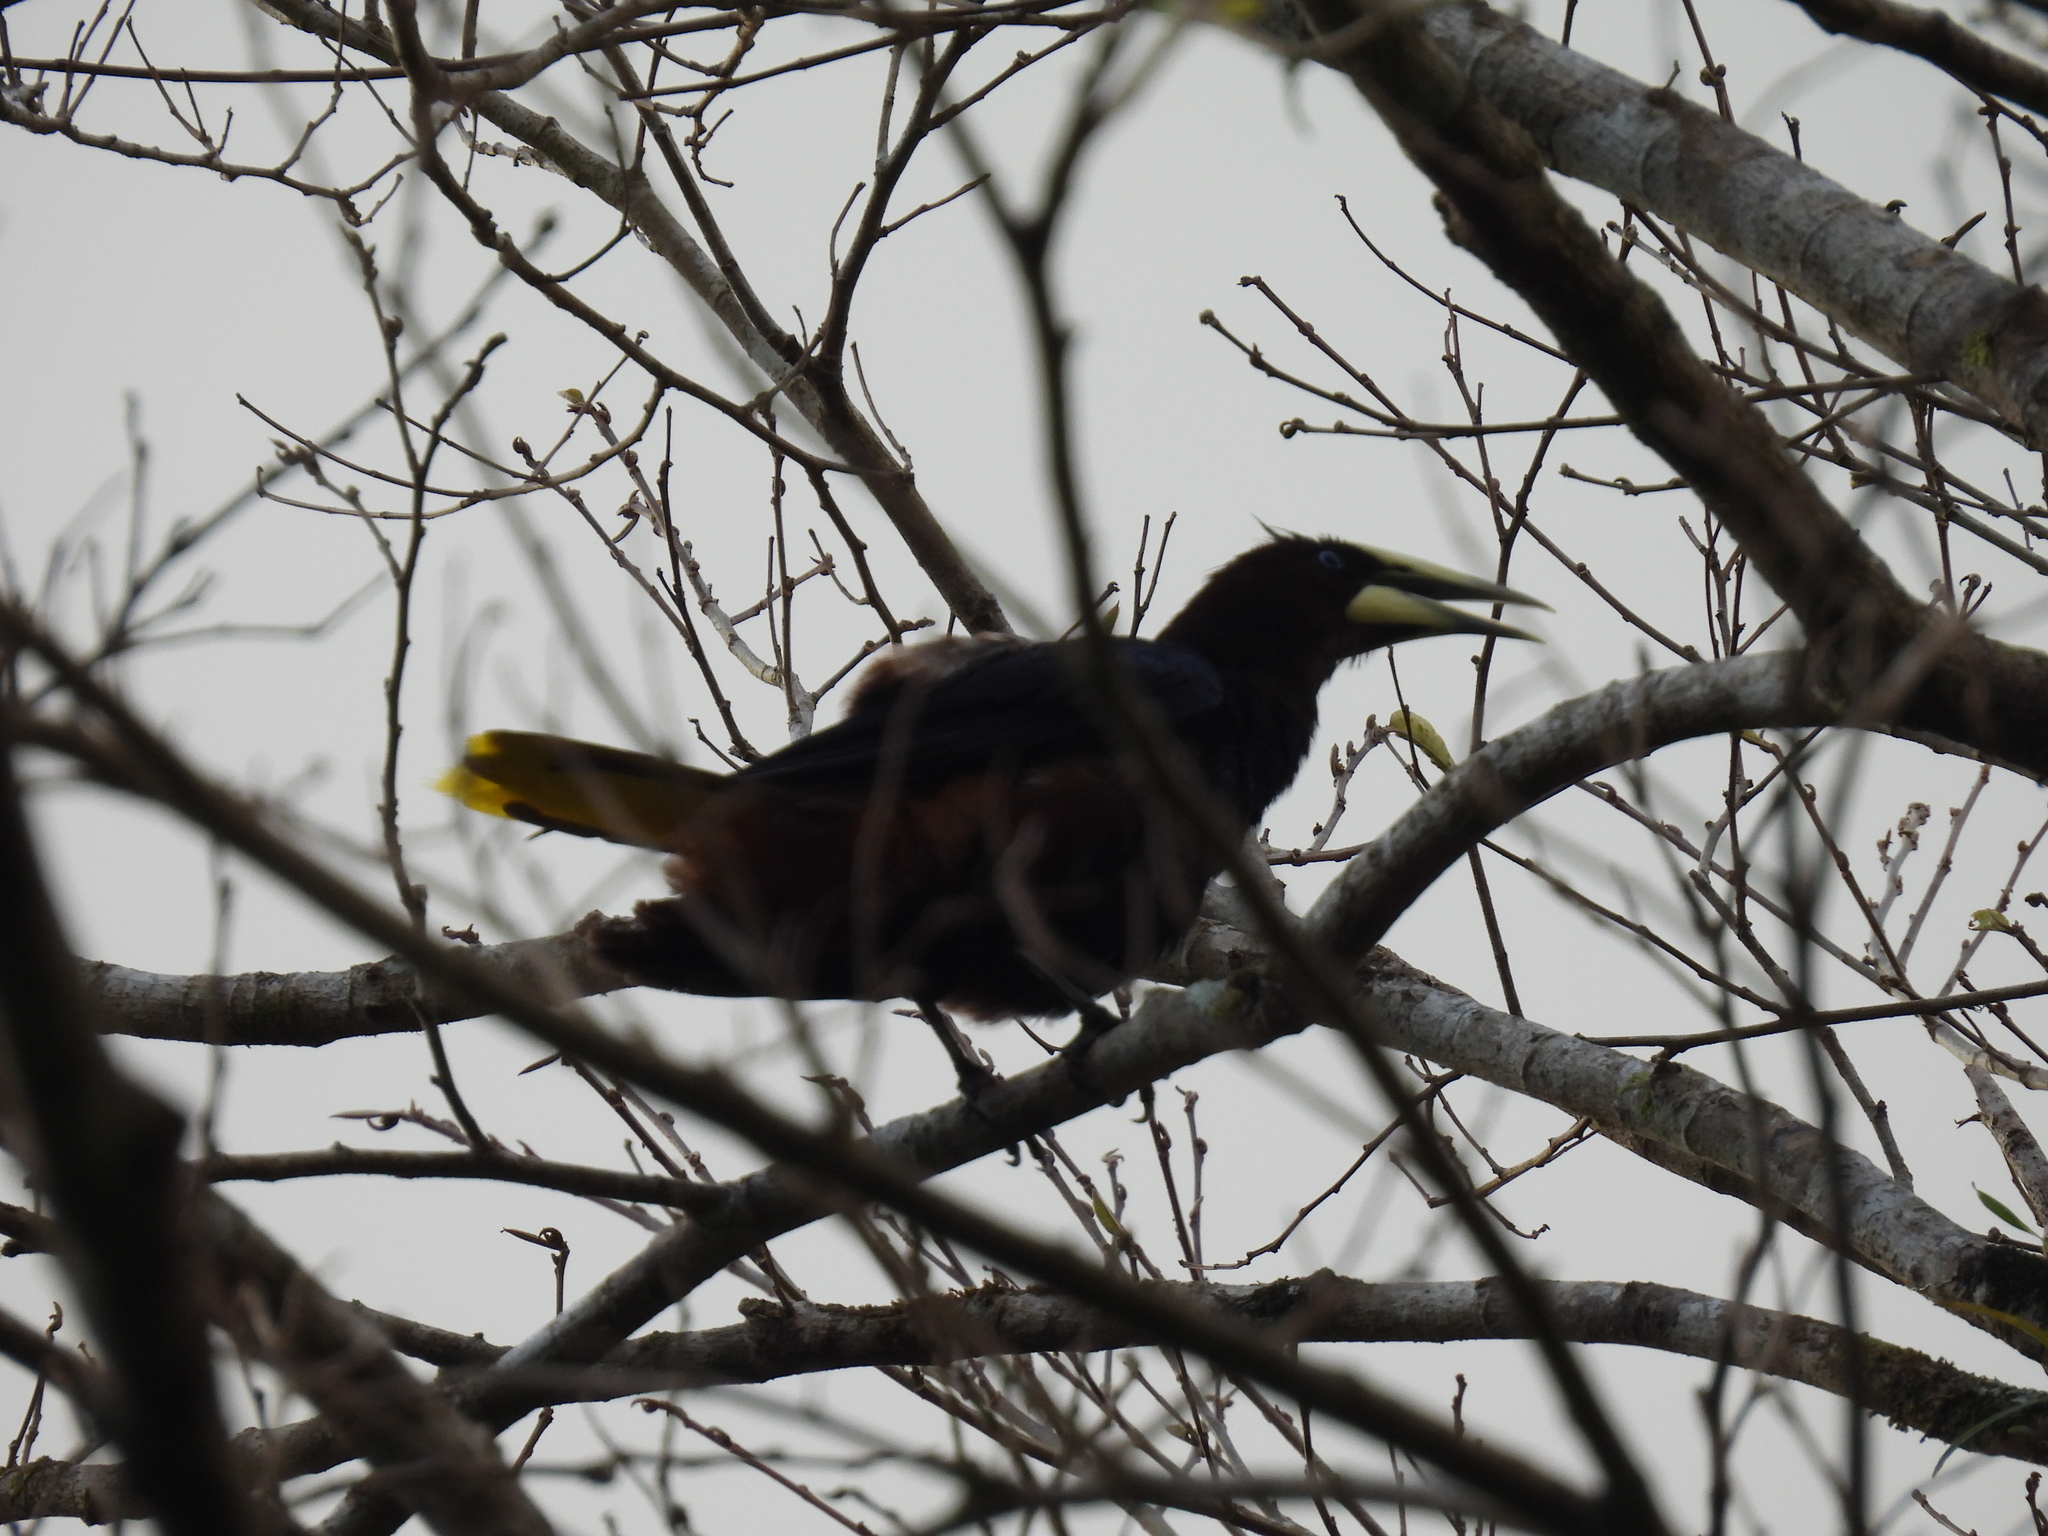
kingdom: Animalia
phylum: Chordata
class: Aves
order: Passeriformes
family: Icteridae
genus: Psarocolius
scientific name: Psarocolius wagleri
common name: Chestnut-headed oropendola
